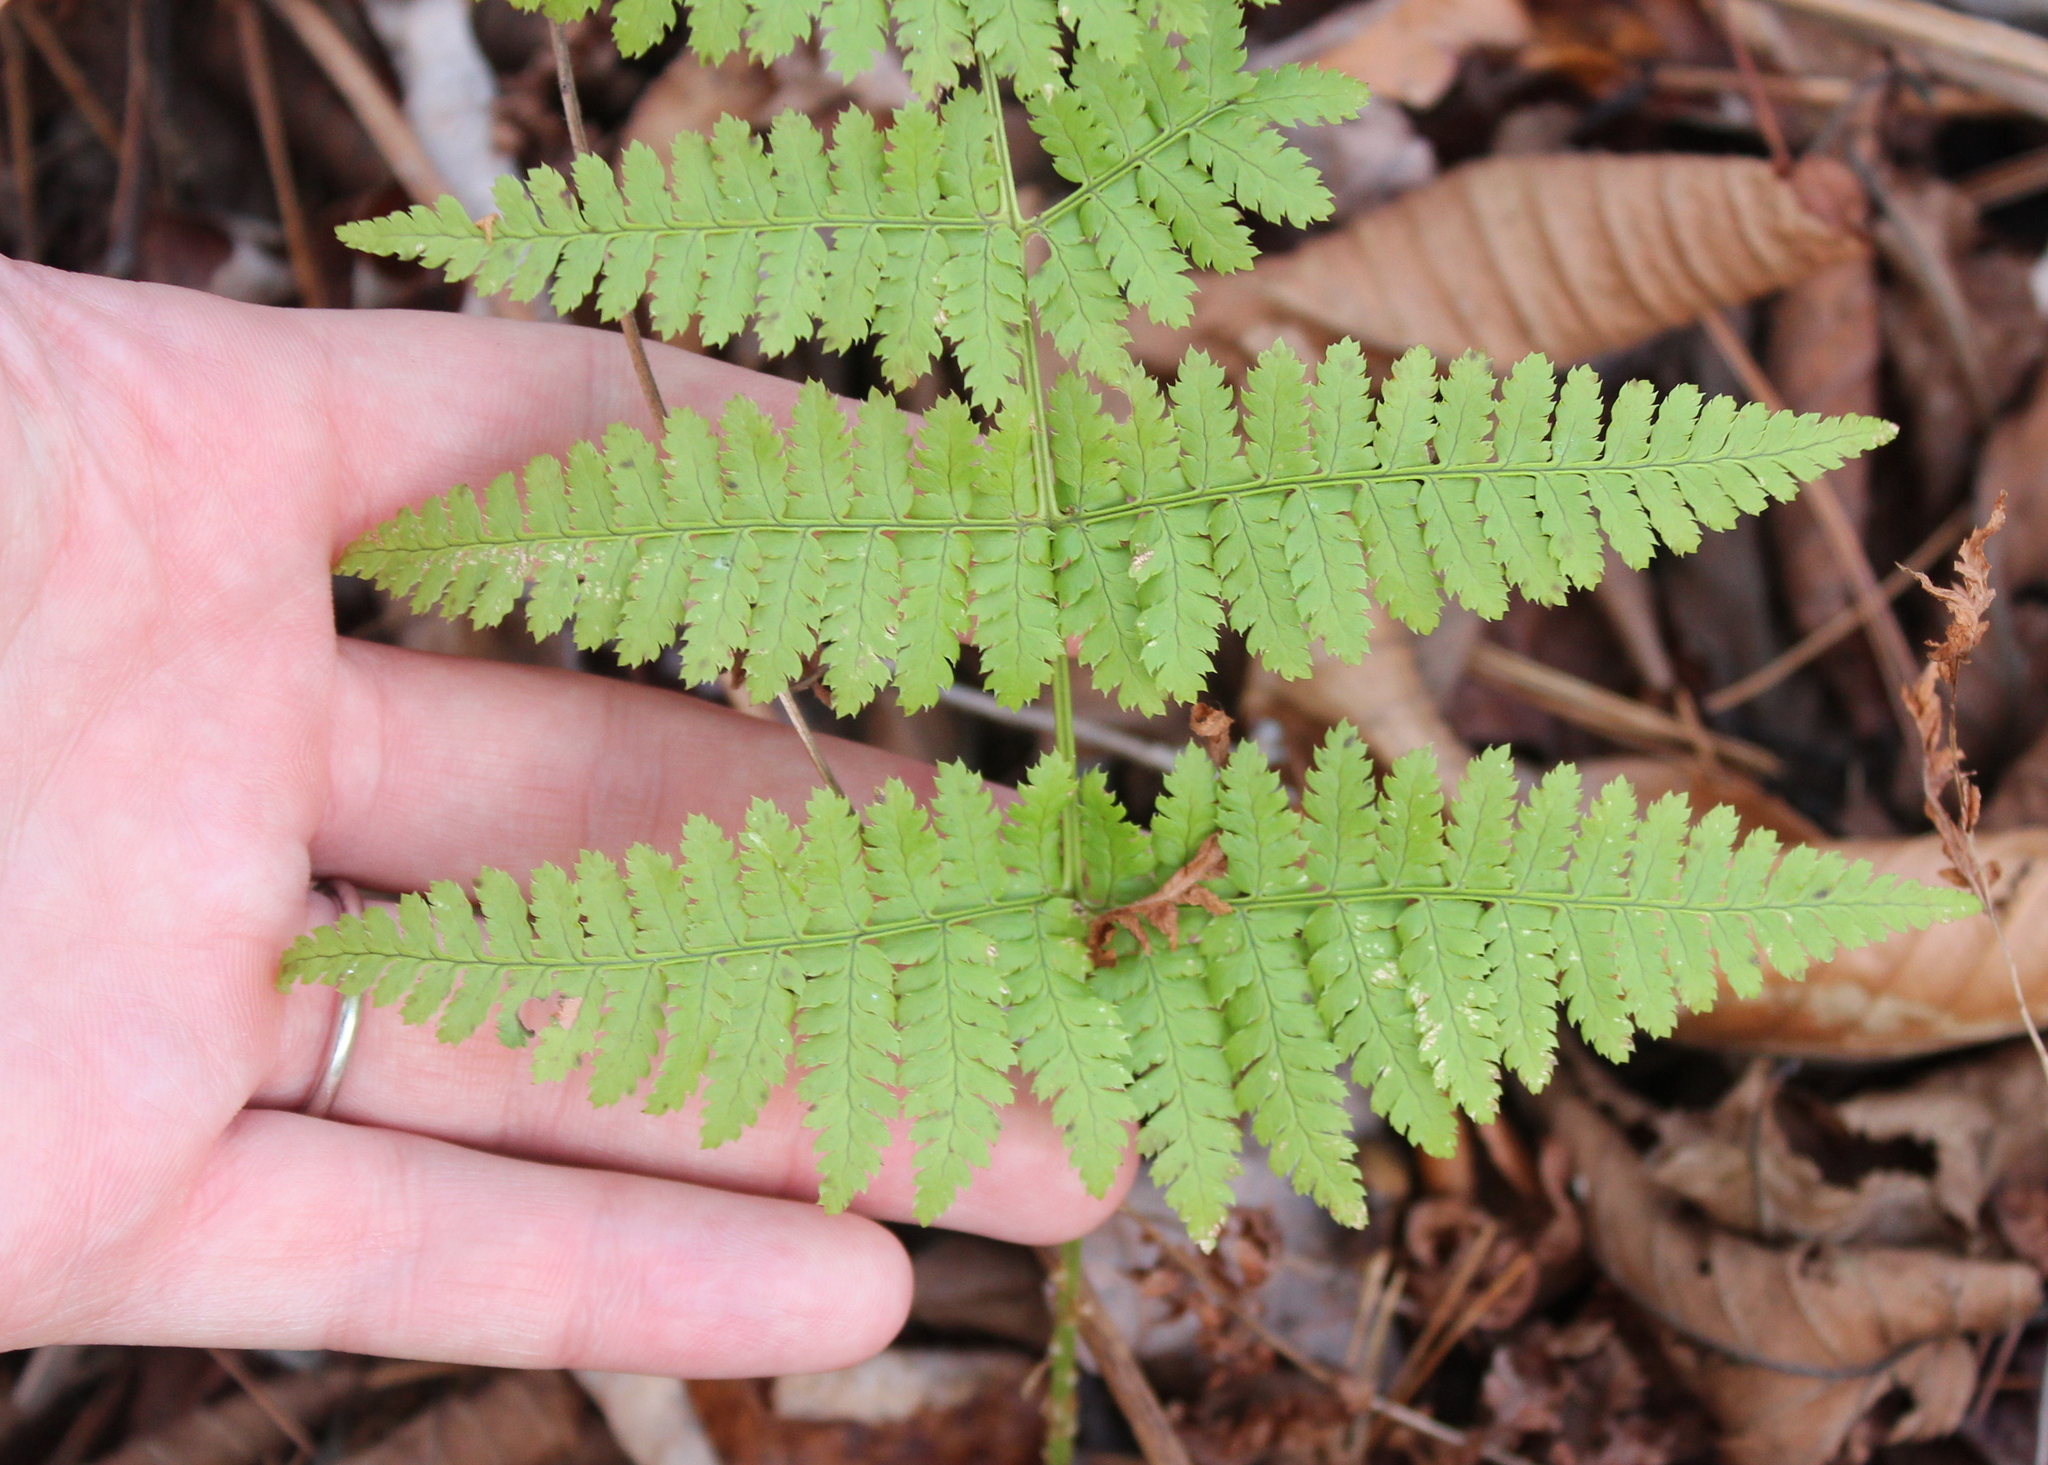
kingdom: Plantae
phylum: Tracheophyta
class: Polypodiopsida
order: Polypodiales
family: Dryopteridaceae
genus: Dryopteris
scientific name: Dryopteris intermedia
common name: Evergreen wood fern
